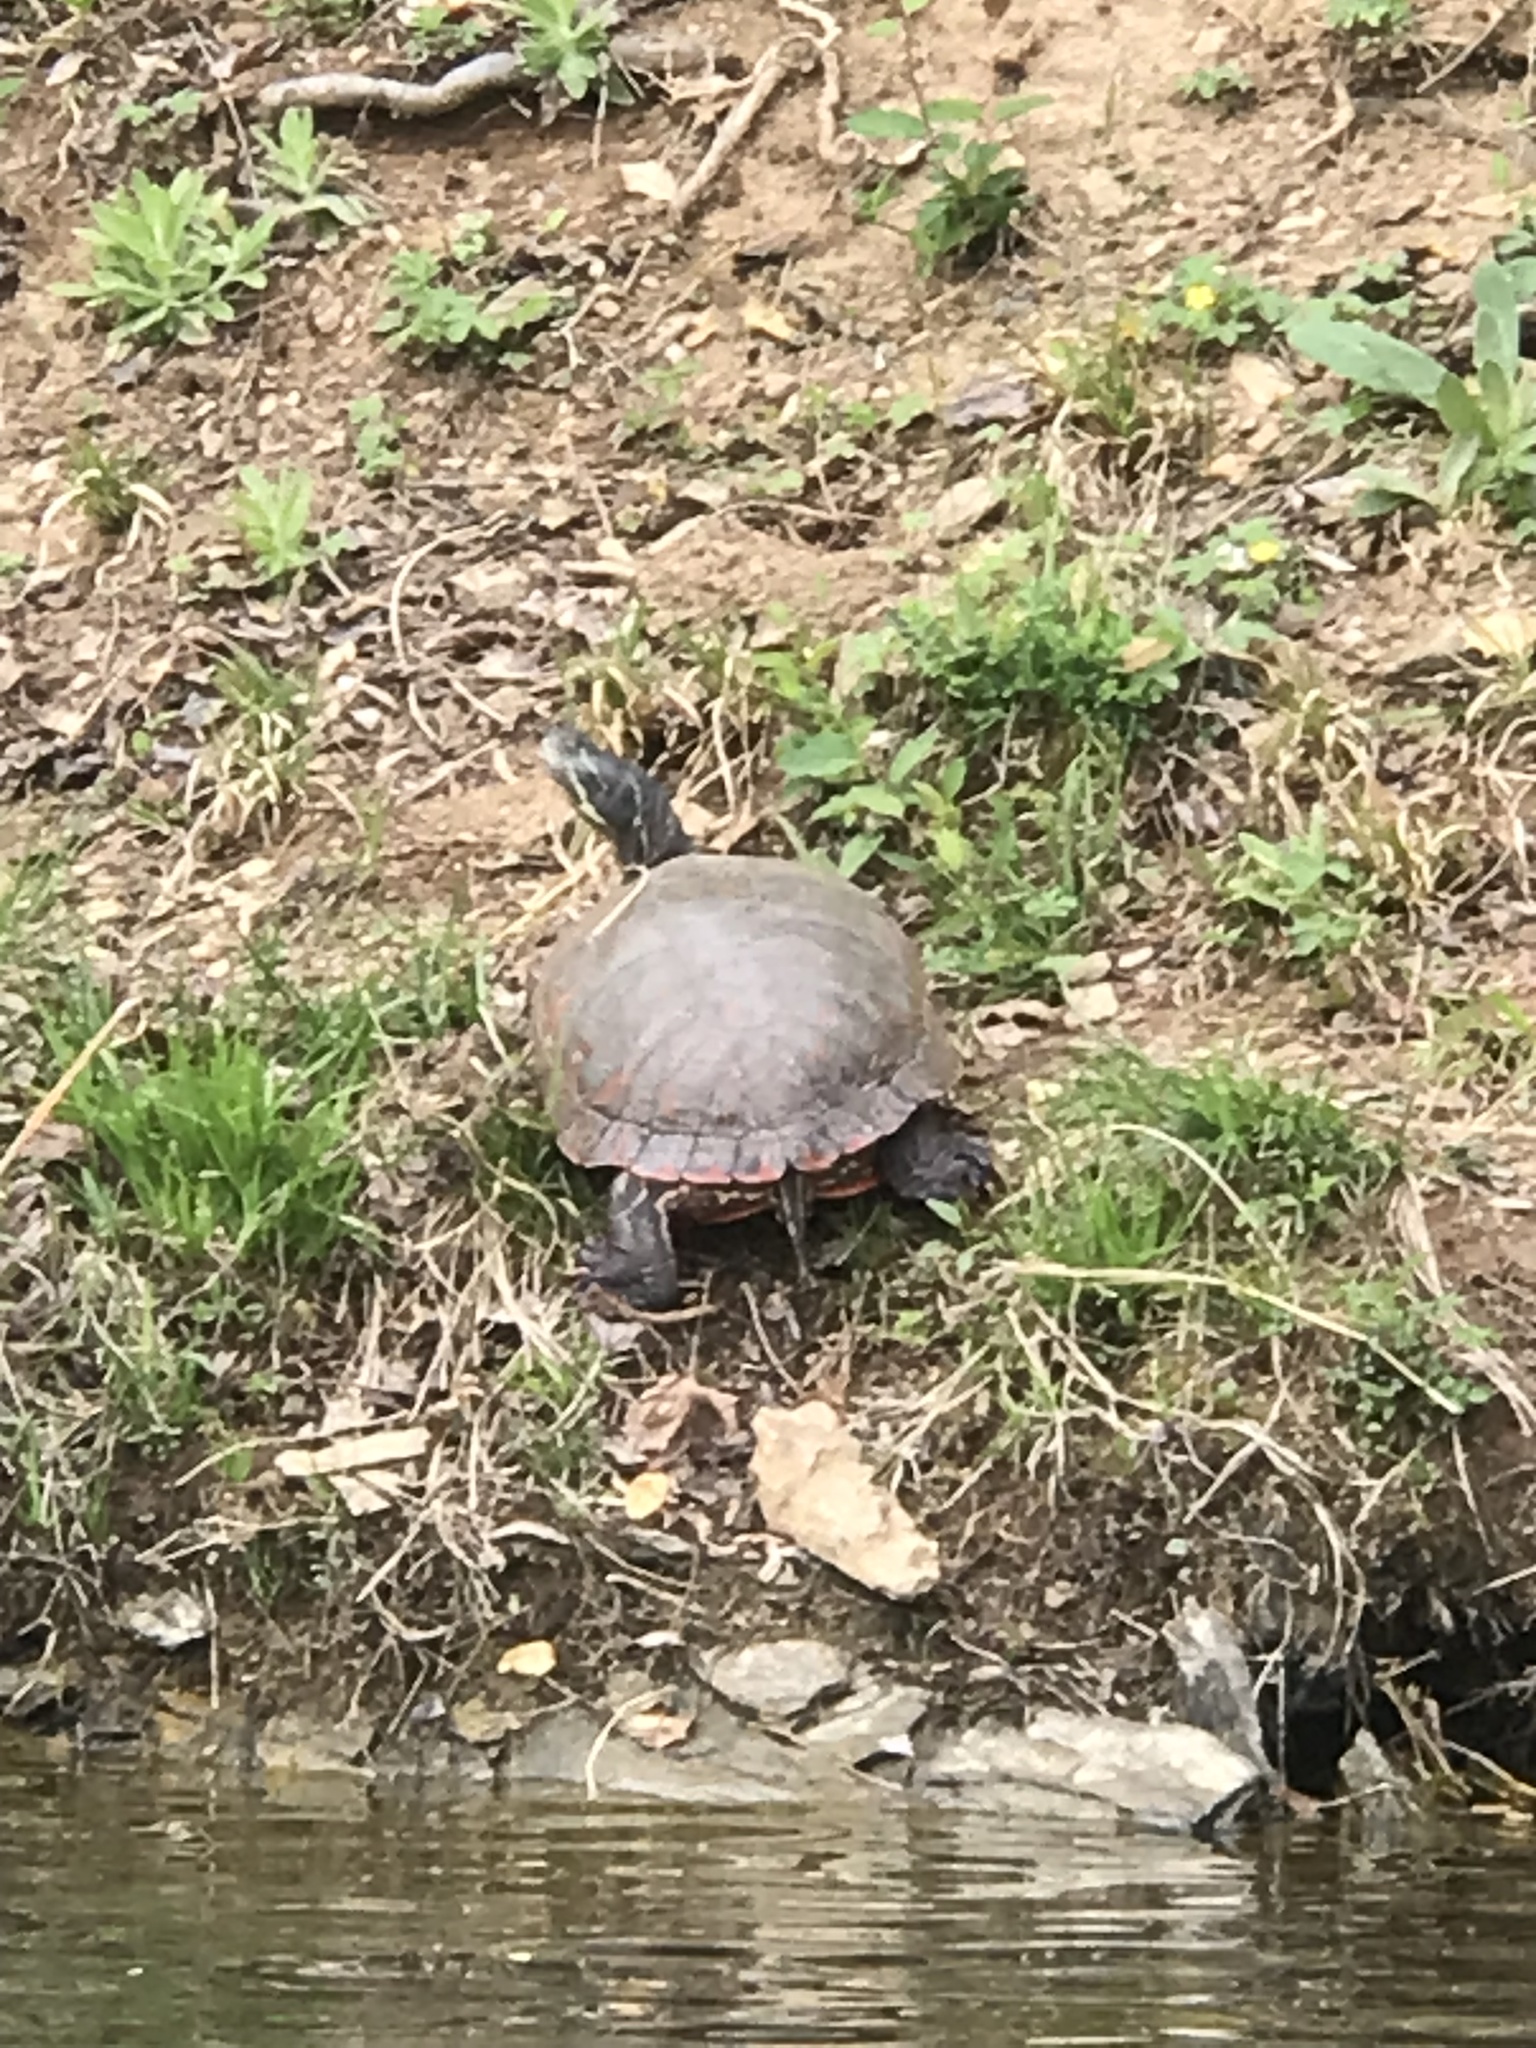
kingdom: Animalia
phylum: Chordata
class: Testudines
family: Emydidae
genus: Pseudemys
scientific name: Pseudemys rubriventris
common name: American red-bellied turtle
